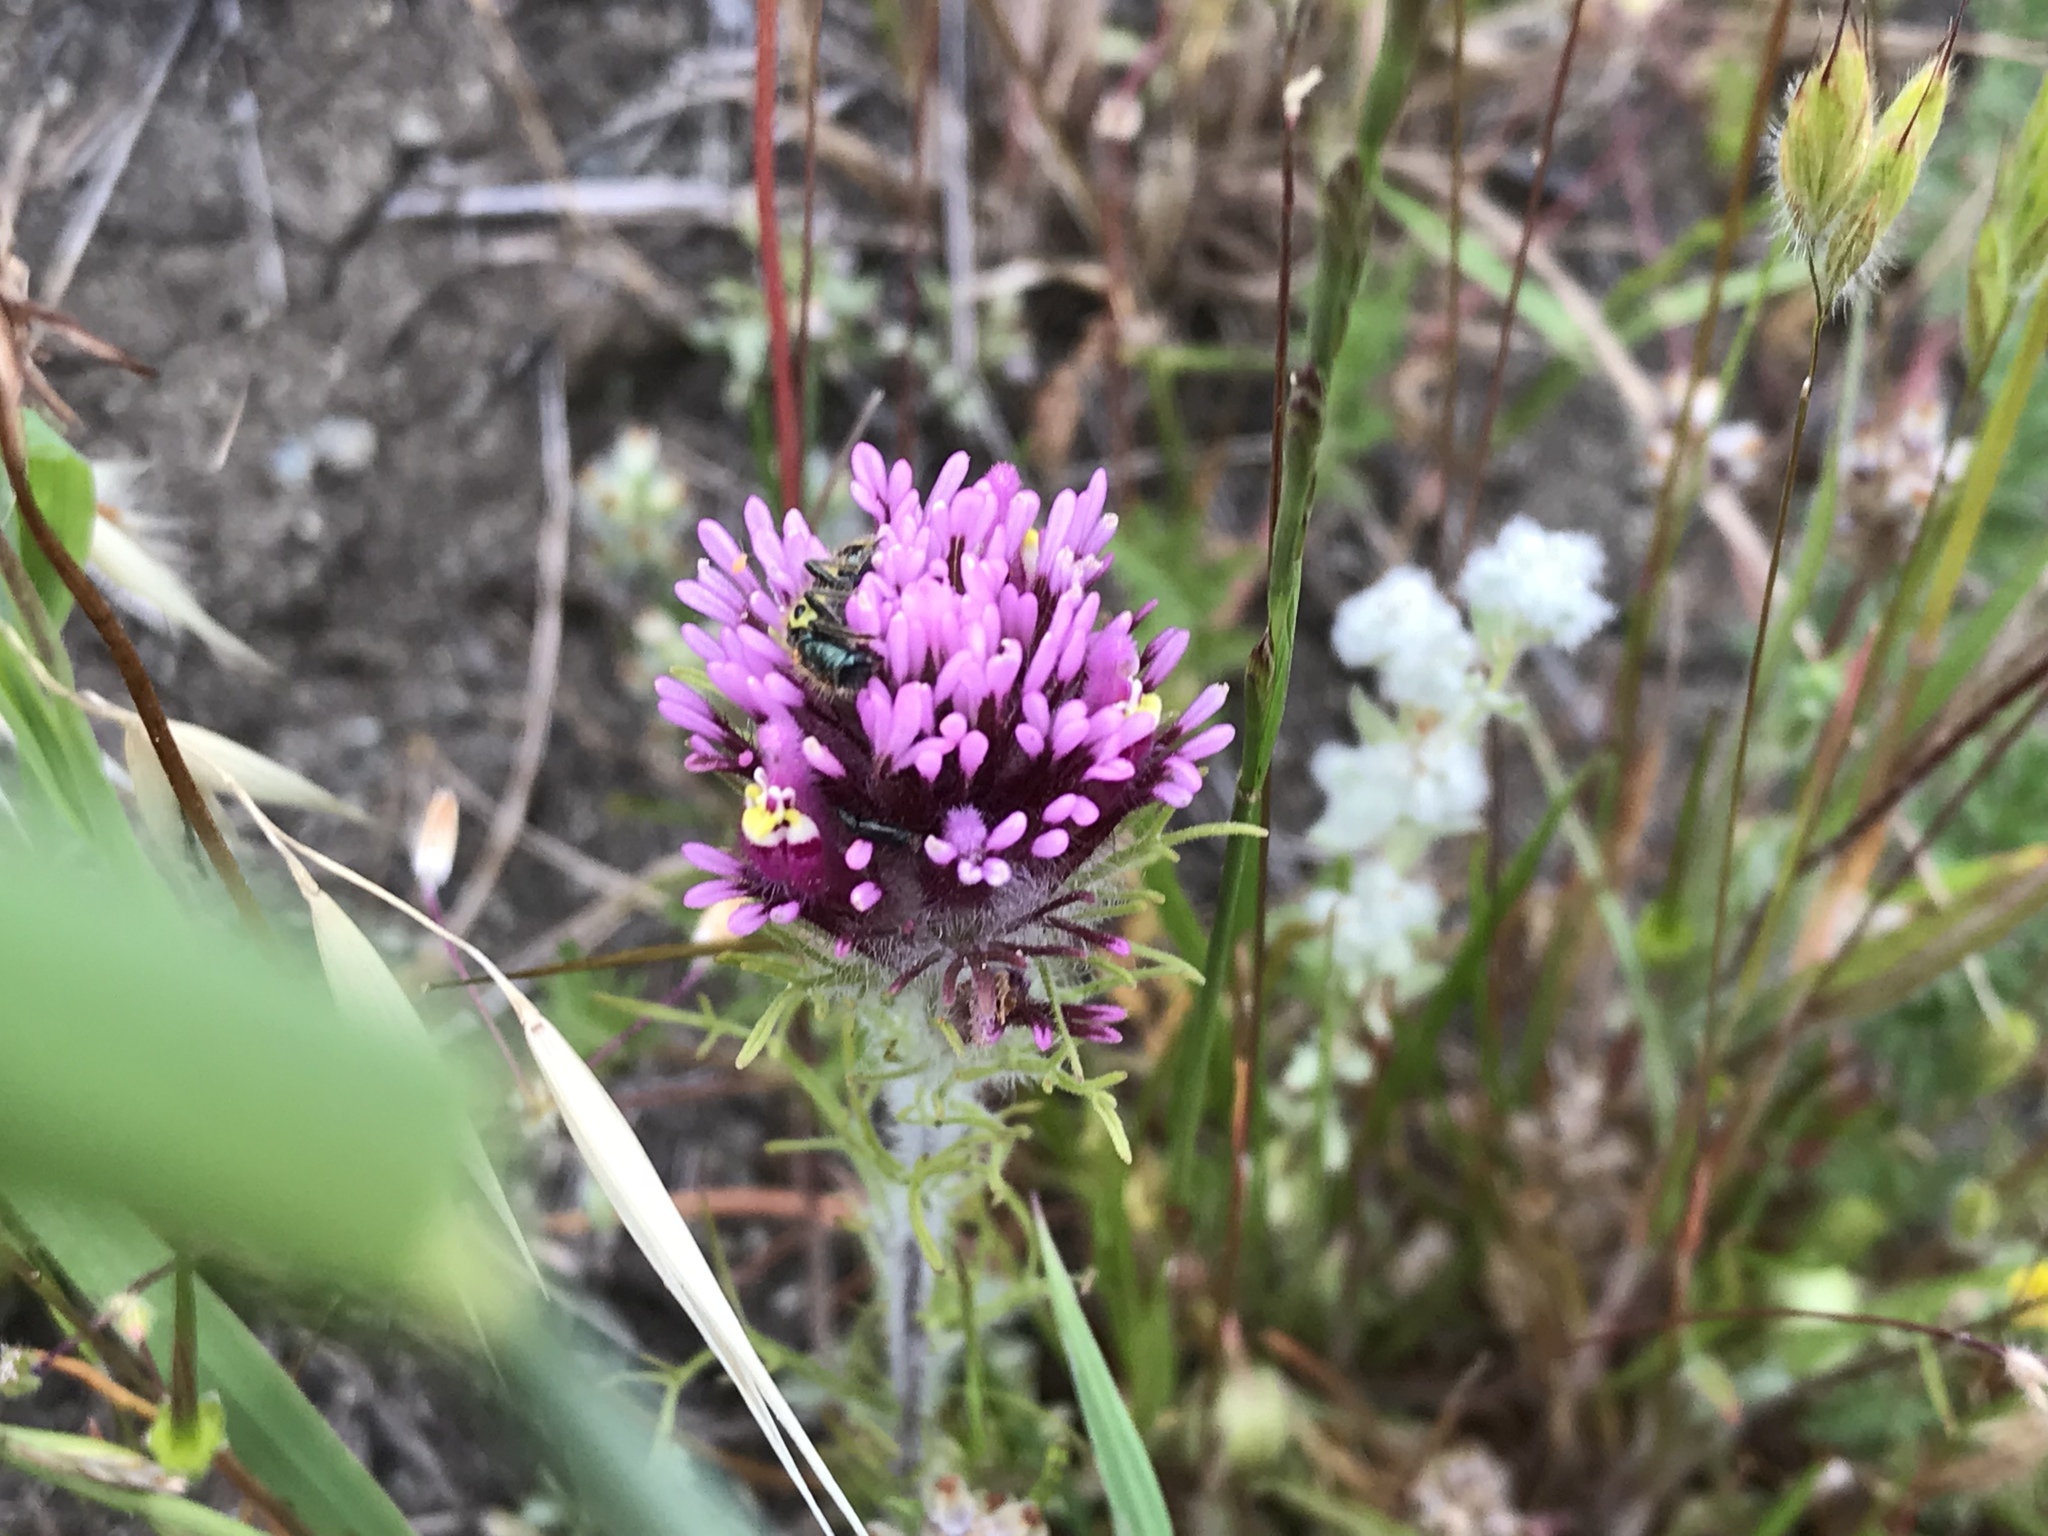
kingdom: Plantae
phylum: Tracheophyta
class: Magnoliopsida
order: Lamiales
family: Orobanchaceae
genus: Castilleja
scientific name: Castilleja exserta
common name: Purple owl-clover
